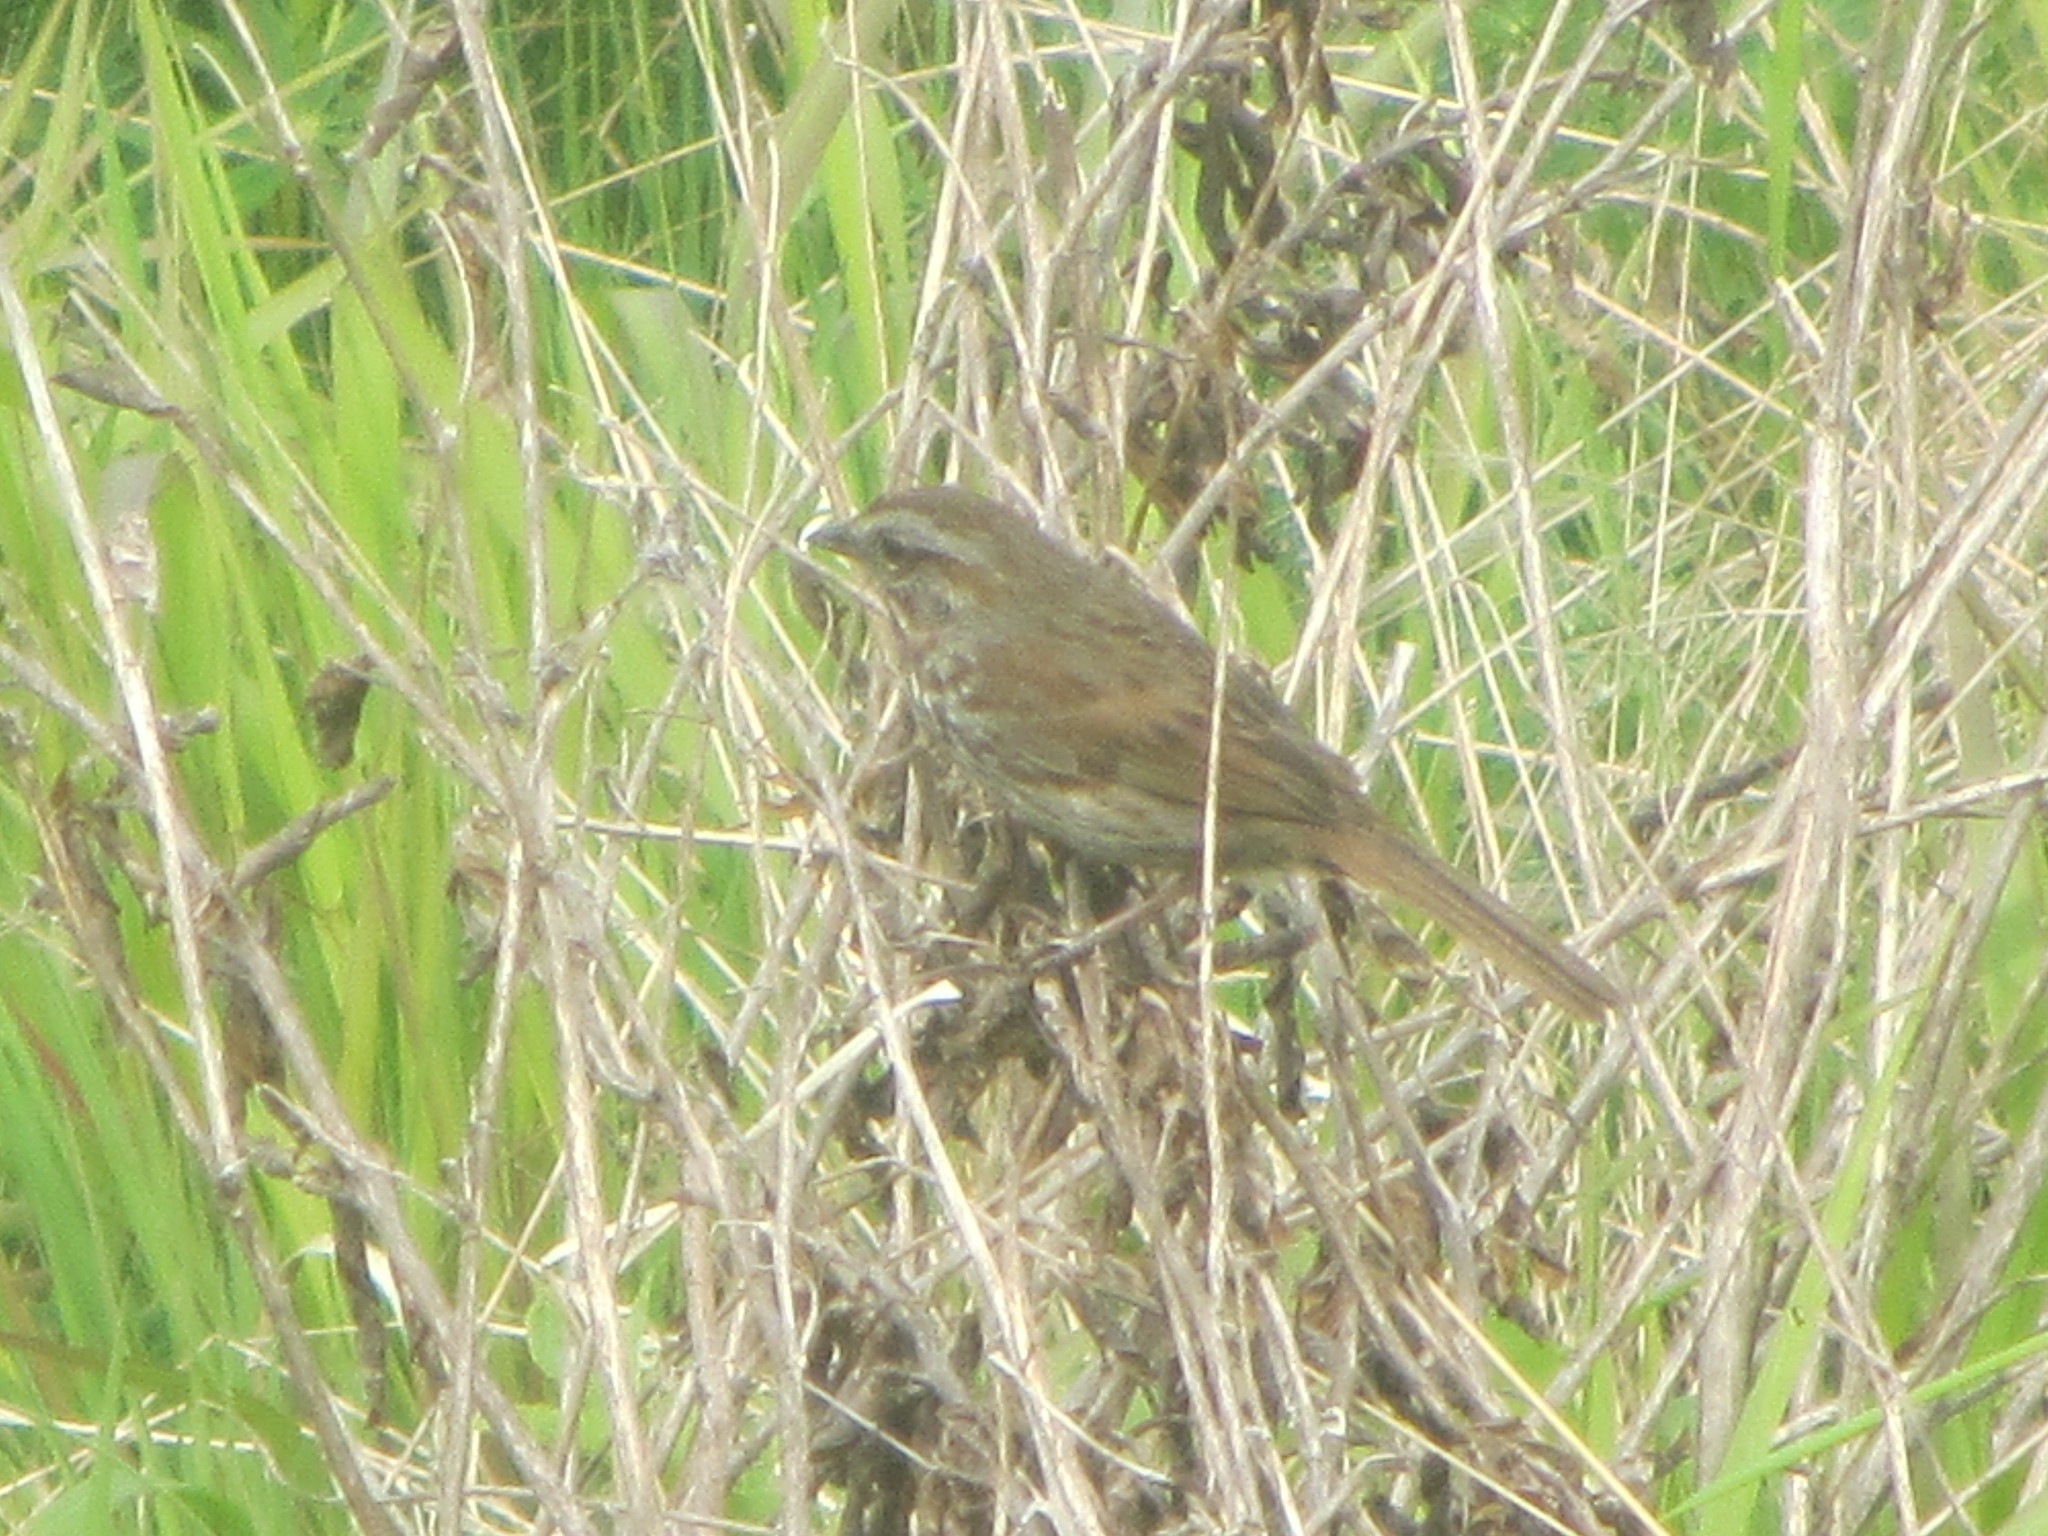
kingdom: Animalia
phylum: Chordata
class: Aves
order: Passeriformes
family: Passerellidae
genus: Melospiza
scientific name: Melospiza melodia
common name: Song sparrow
